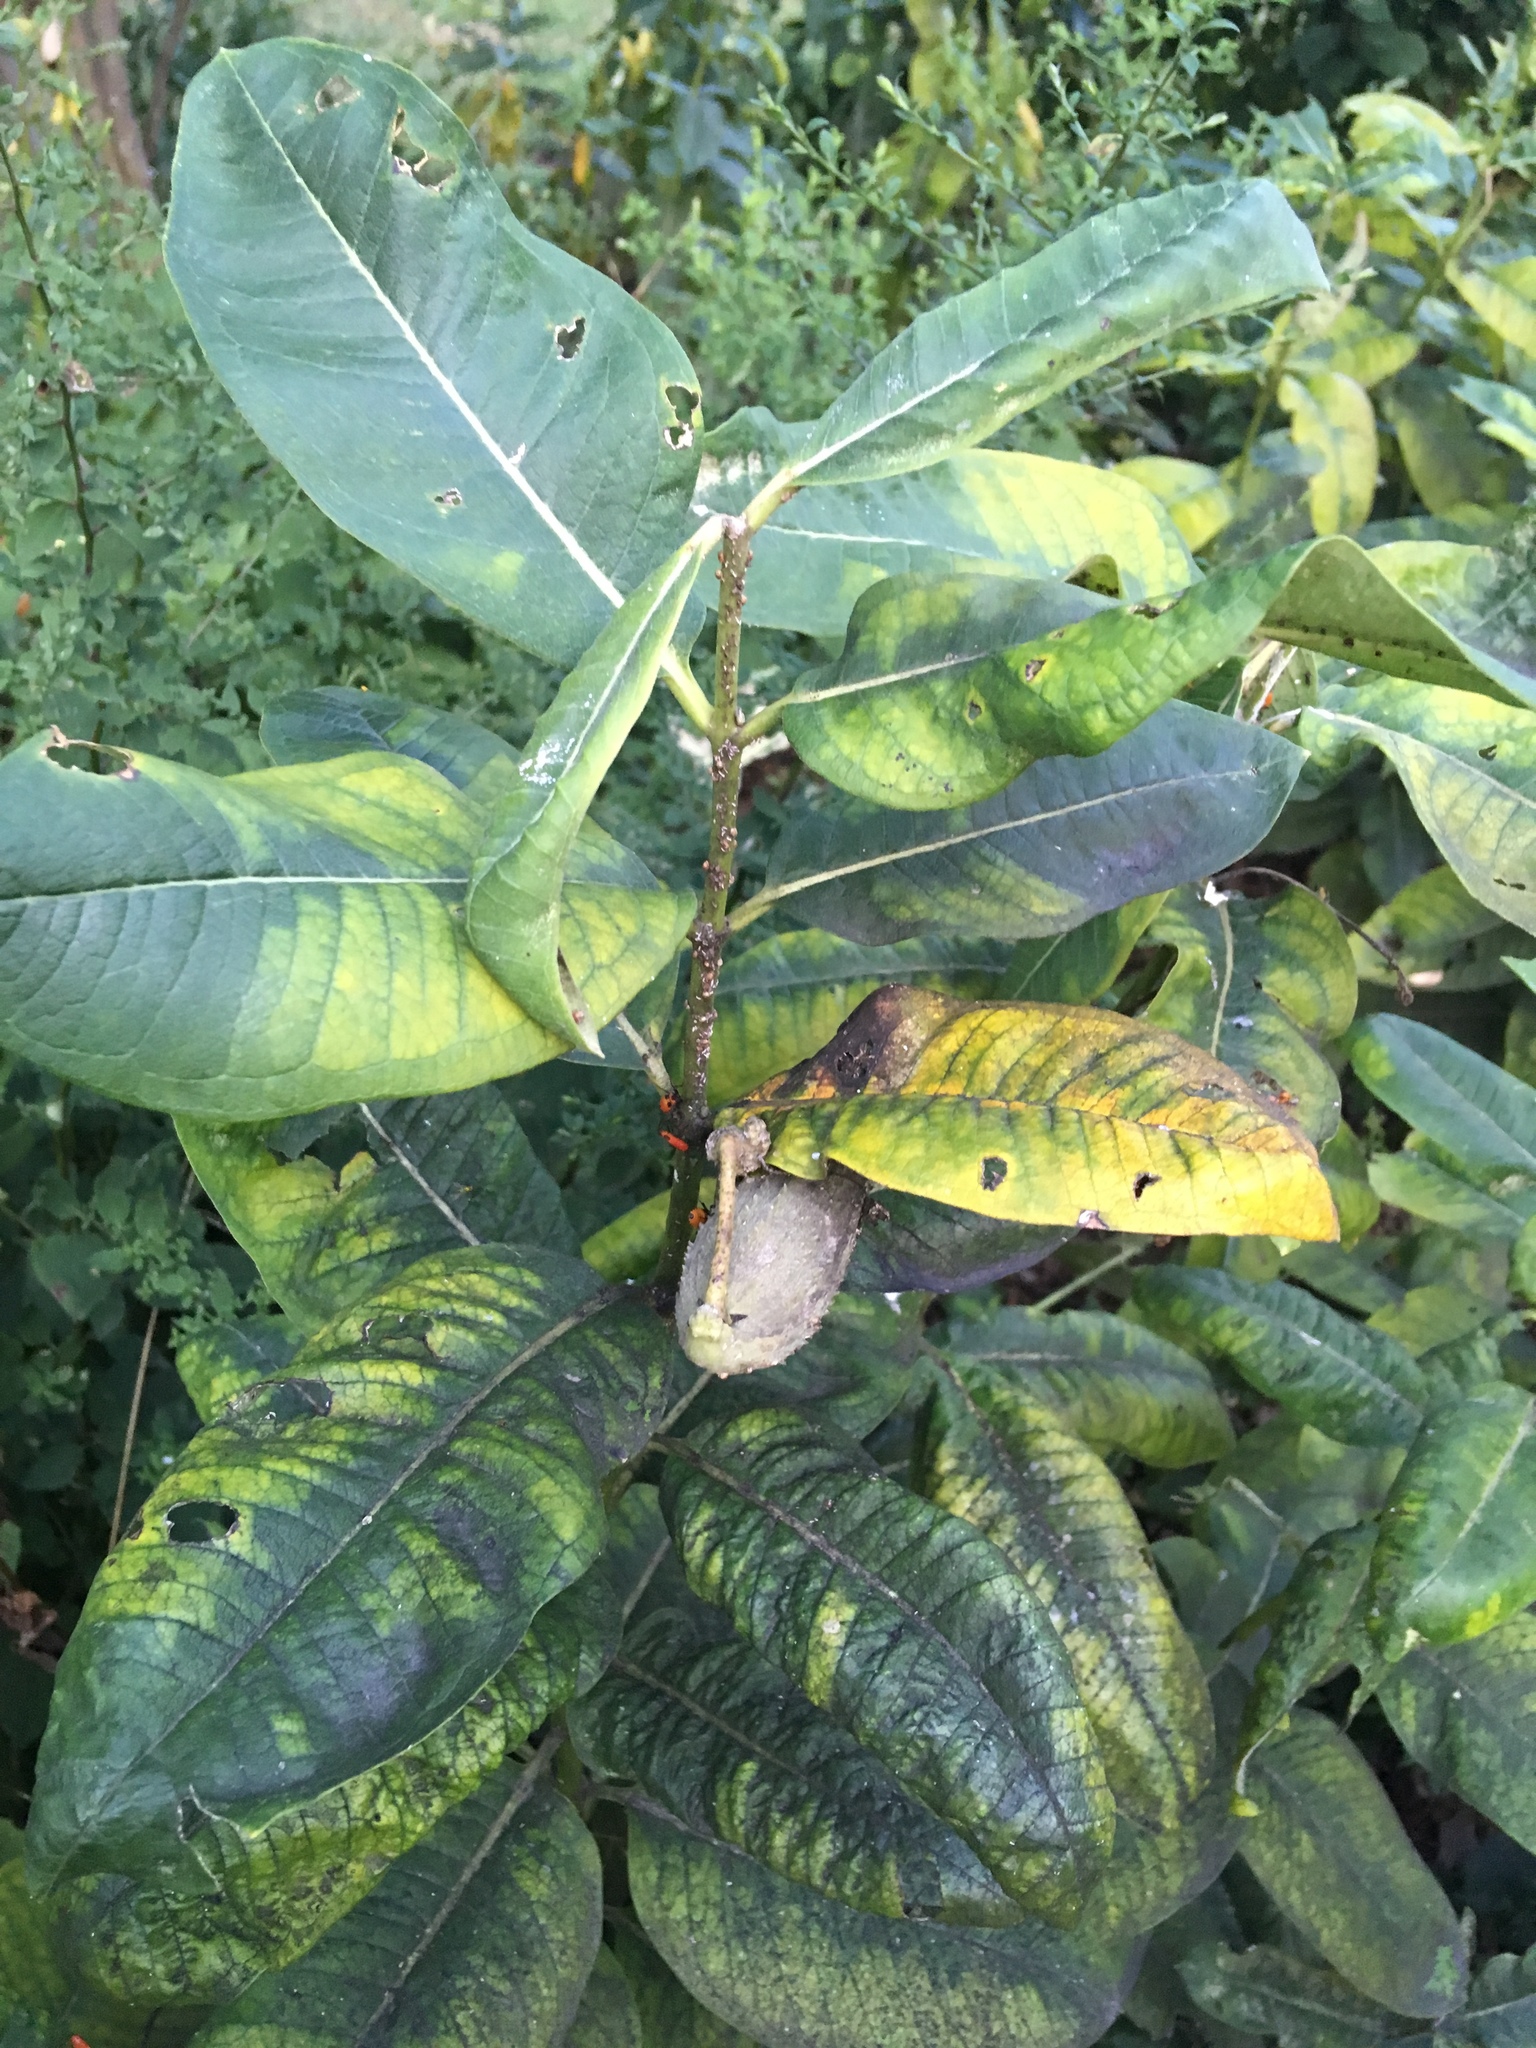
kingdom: Plantae
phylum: Tracheophyta
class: Magnoliopsida
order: Gentianales
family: Apocynaceae
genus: Asclepias
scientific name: Asclepias syriaca
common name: Common milkweed
